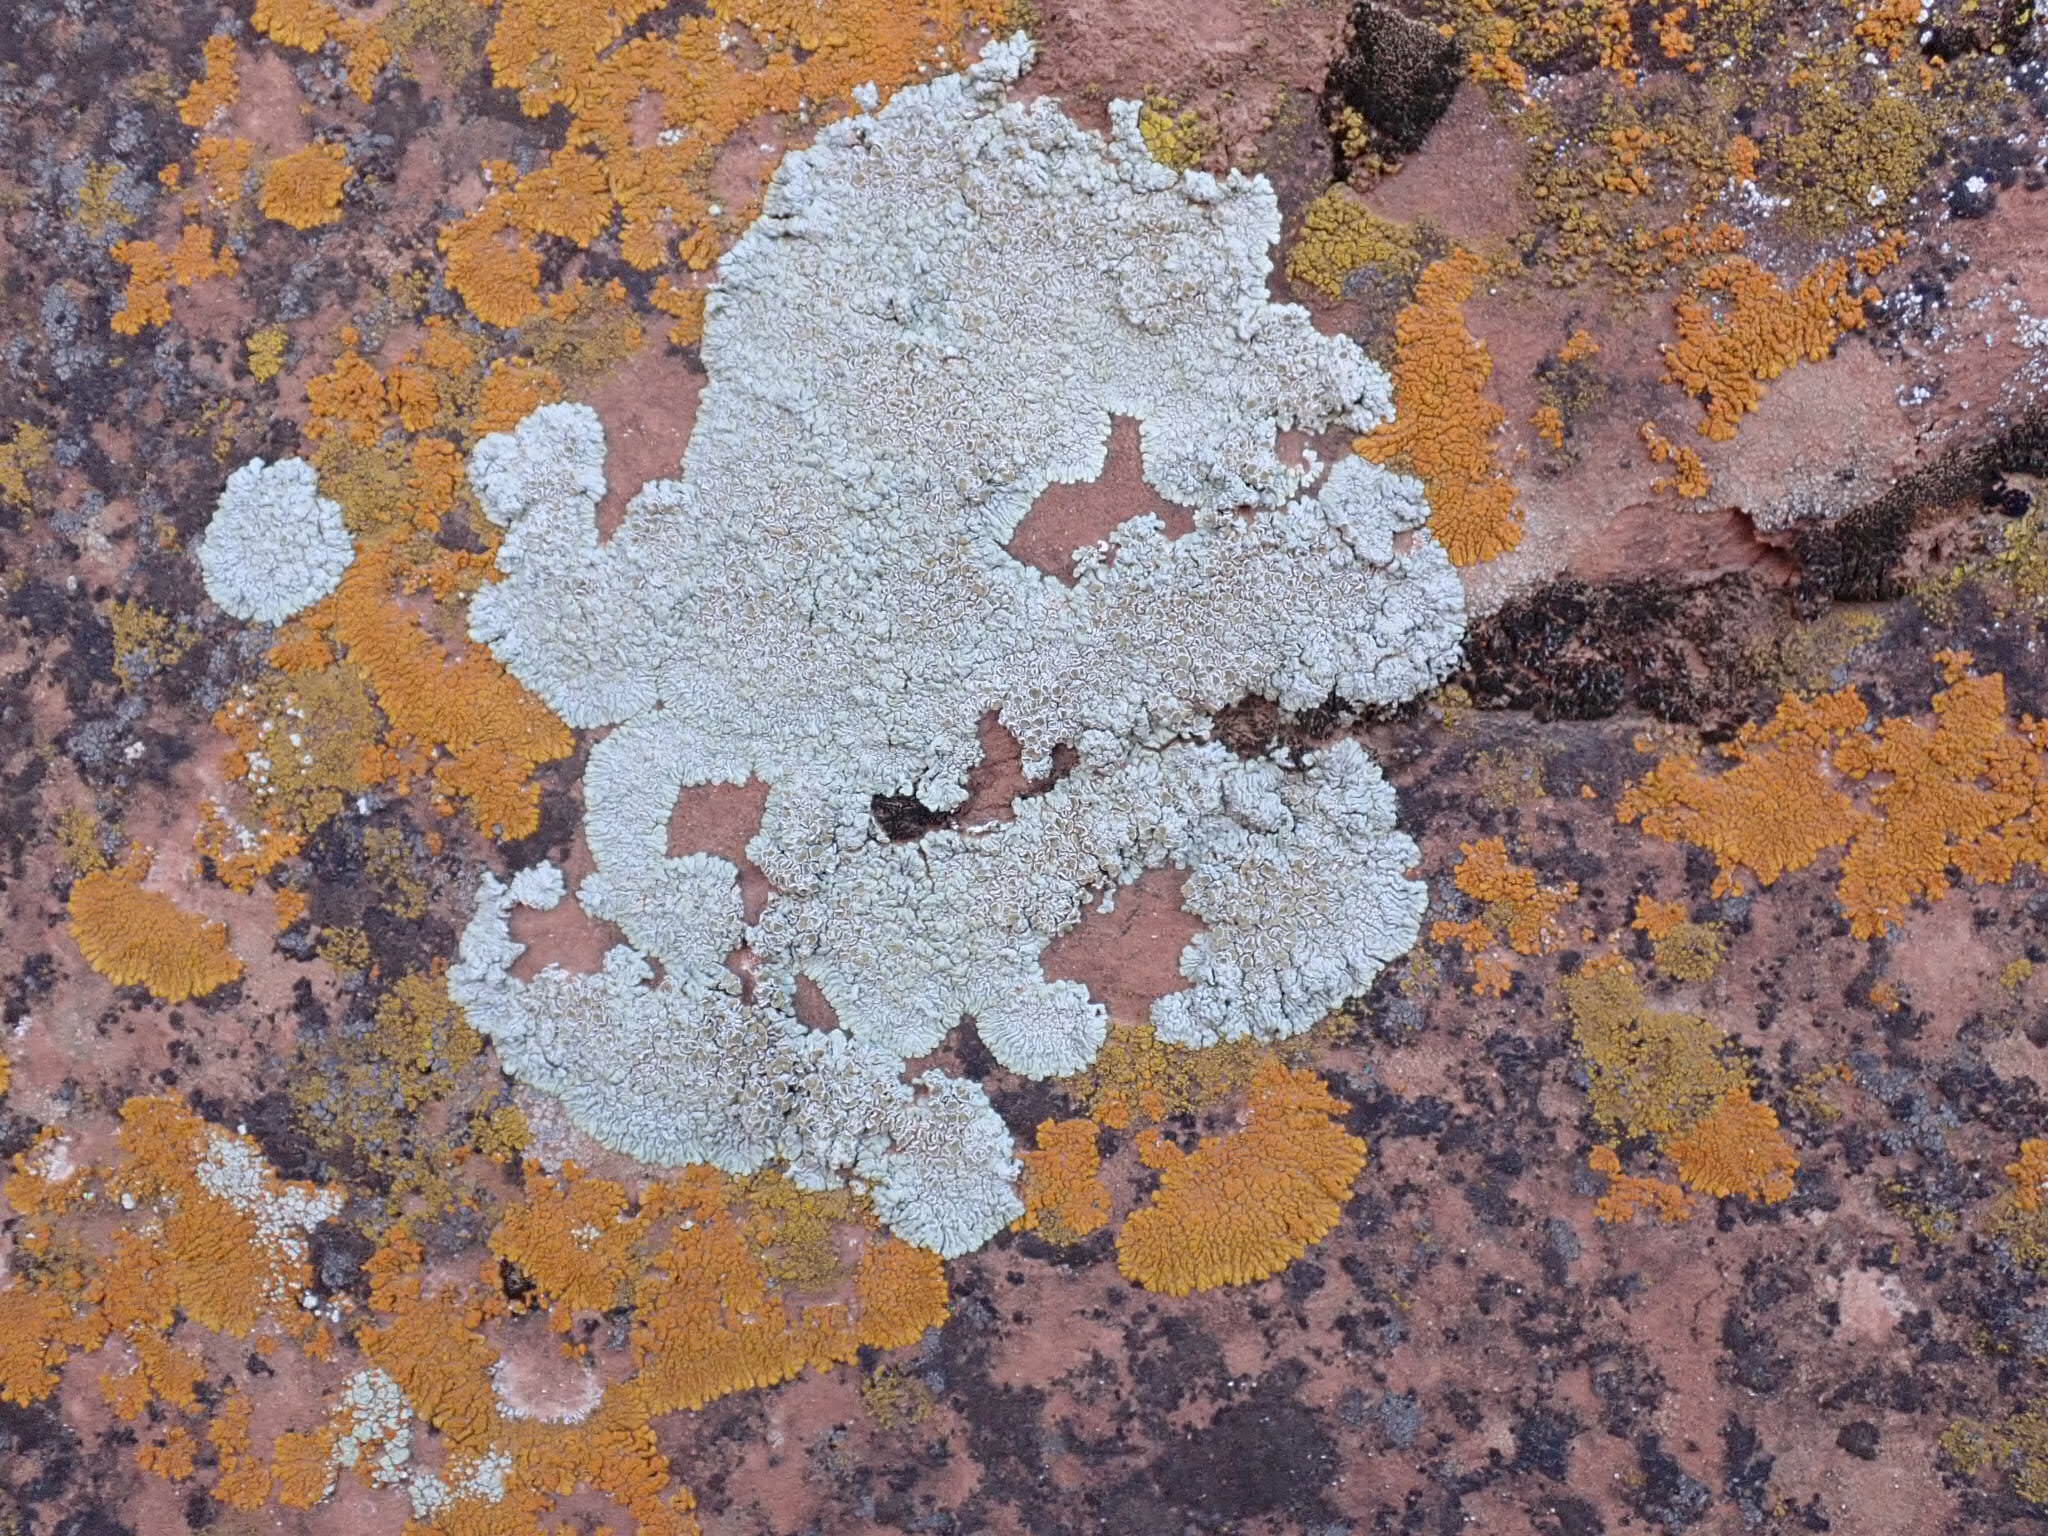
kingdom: Fungi
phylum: Ascomycota
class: Lecanoromycetes
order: Lecanorales
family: Lecanoraceae
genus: Protoparmeliopsis
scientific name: Protoparmeliopsis muralis
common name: Stonewall rim lichen
